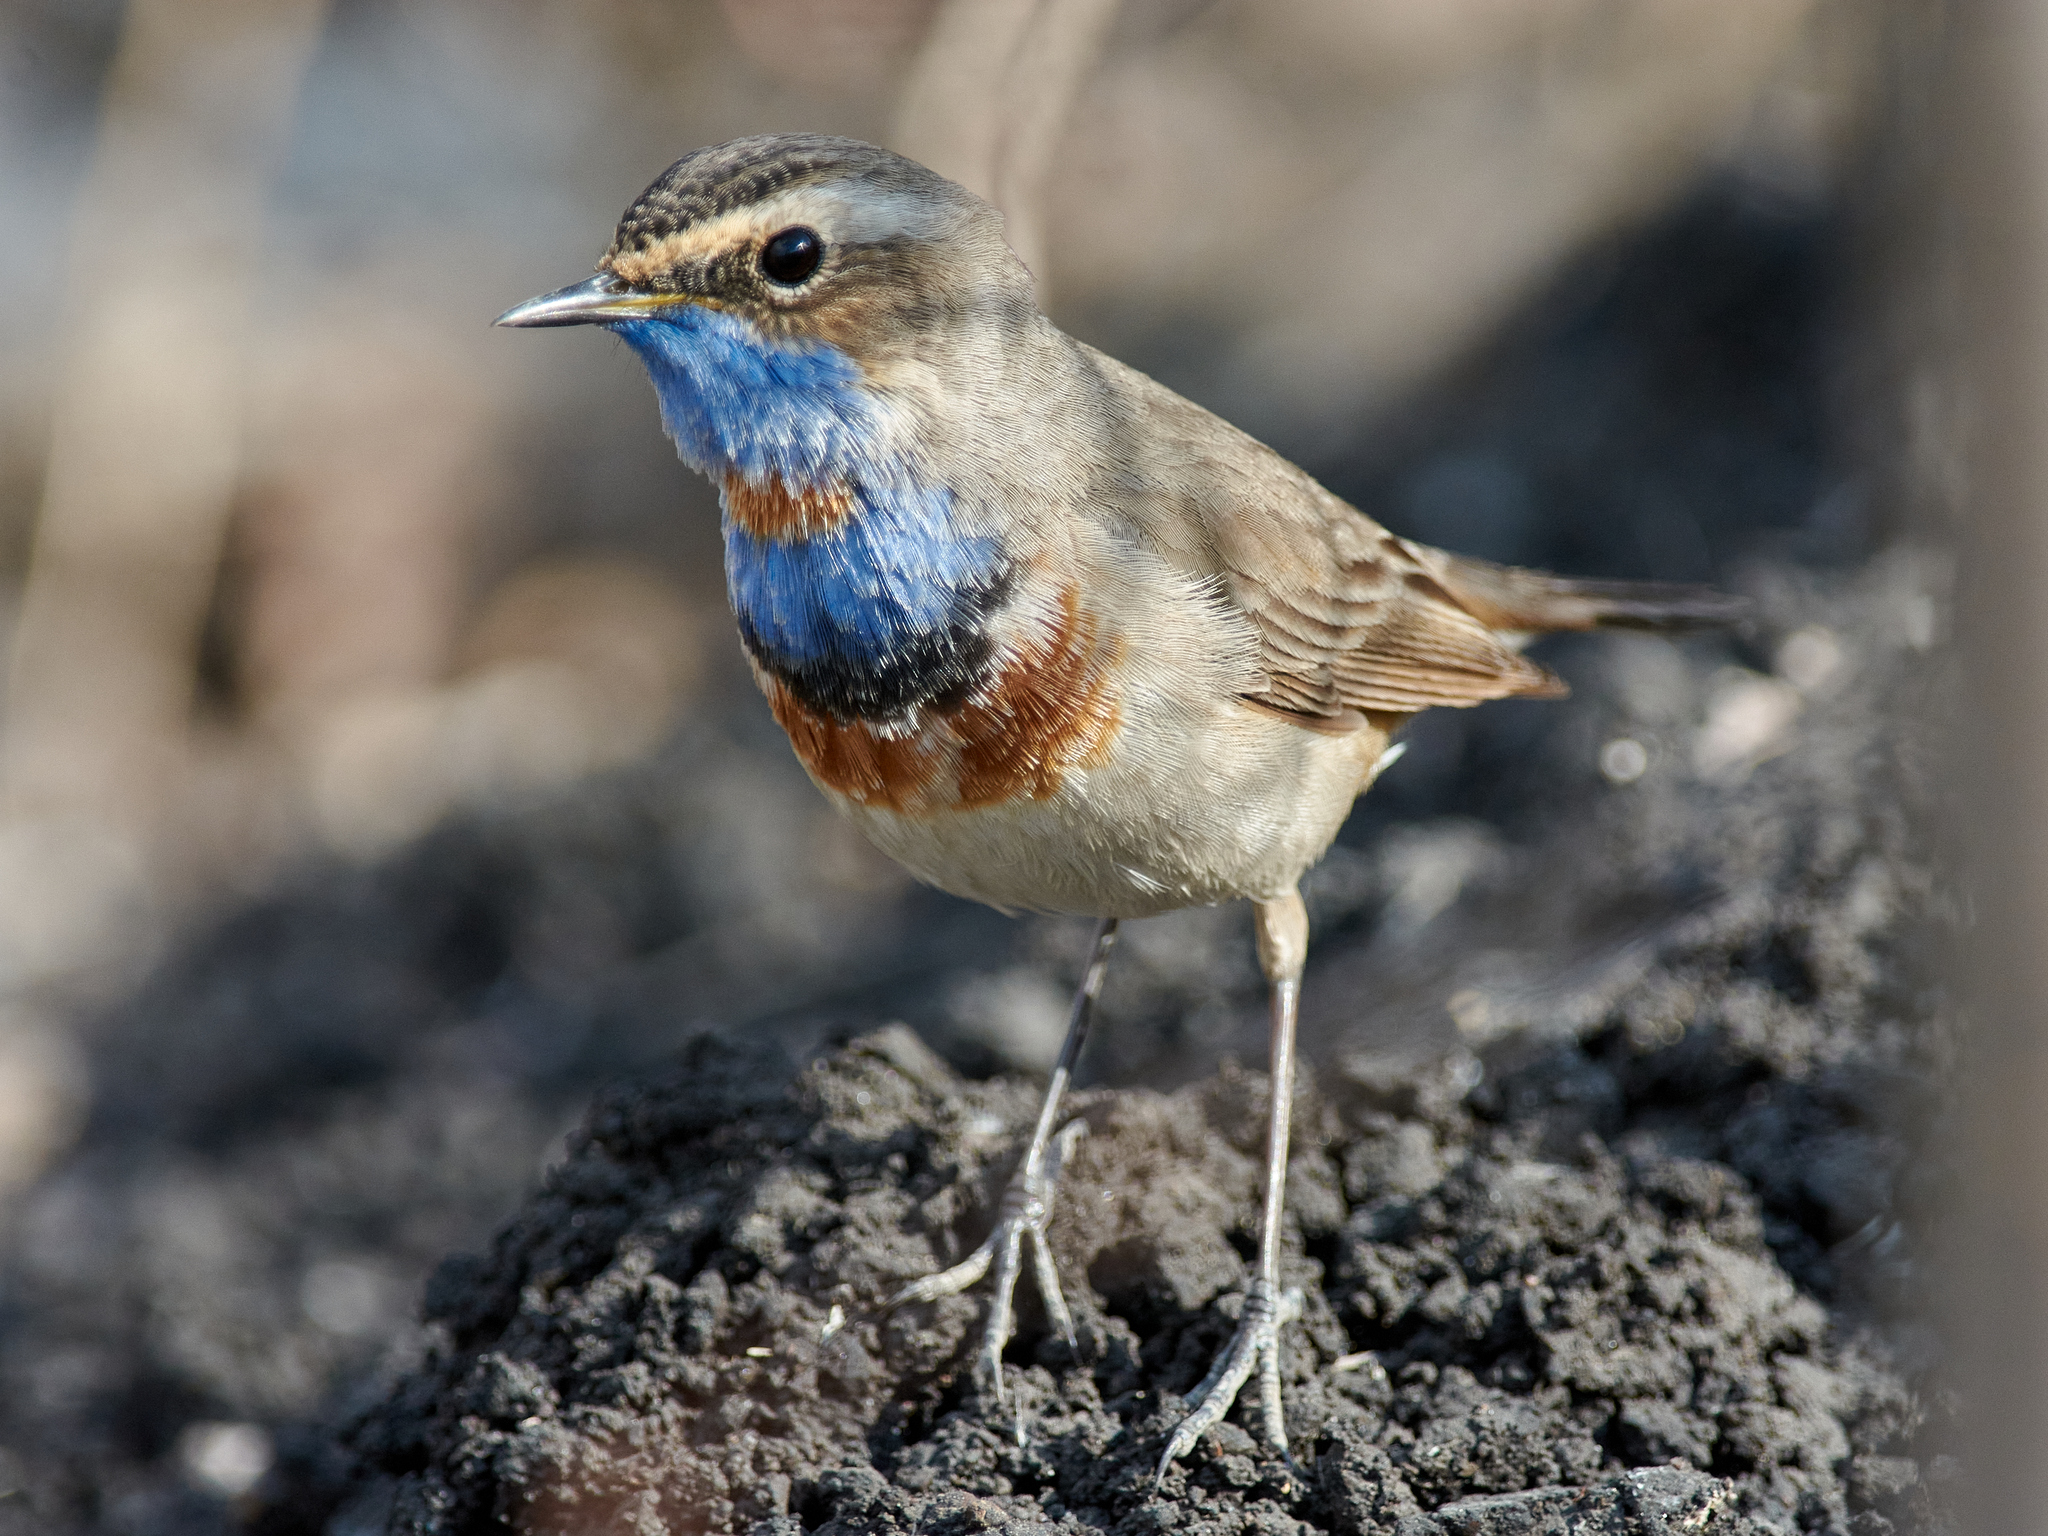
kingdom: Animalia
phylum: Chordata
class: Aves
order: Passeriformes
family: Muscicapidae
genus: Luscinia
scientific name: Luscinia svecica
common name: Bluethroat
